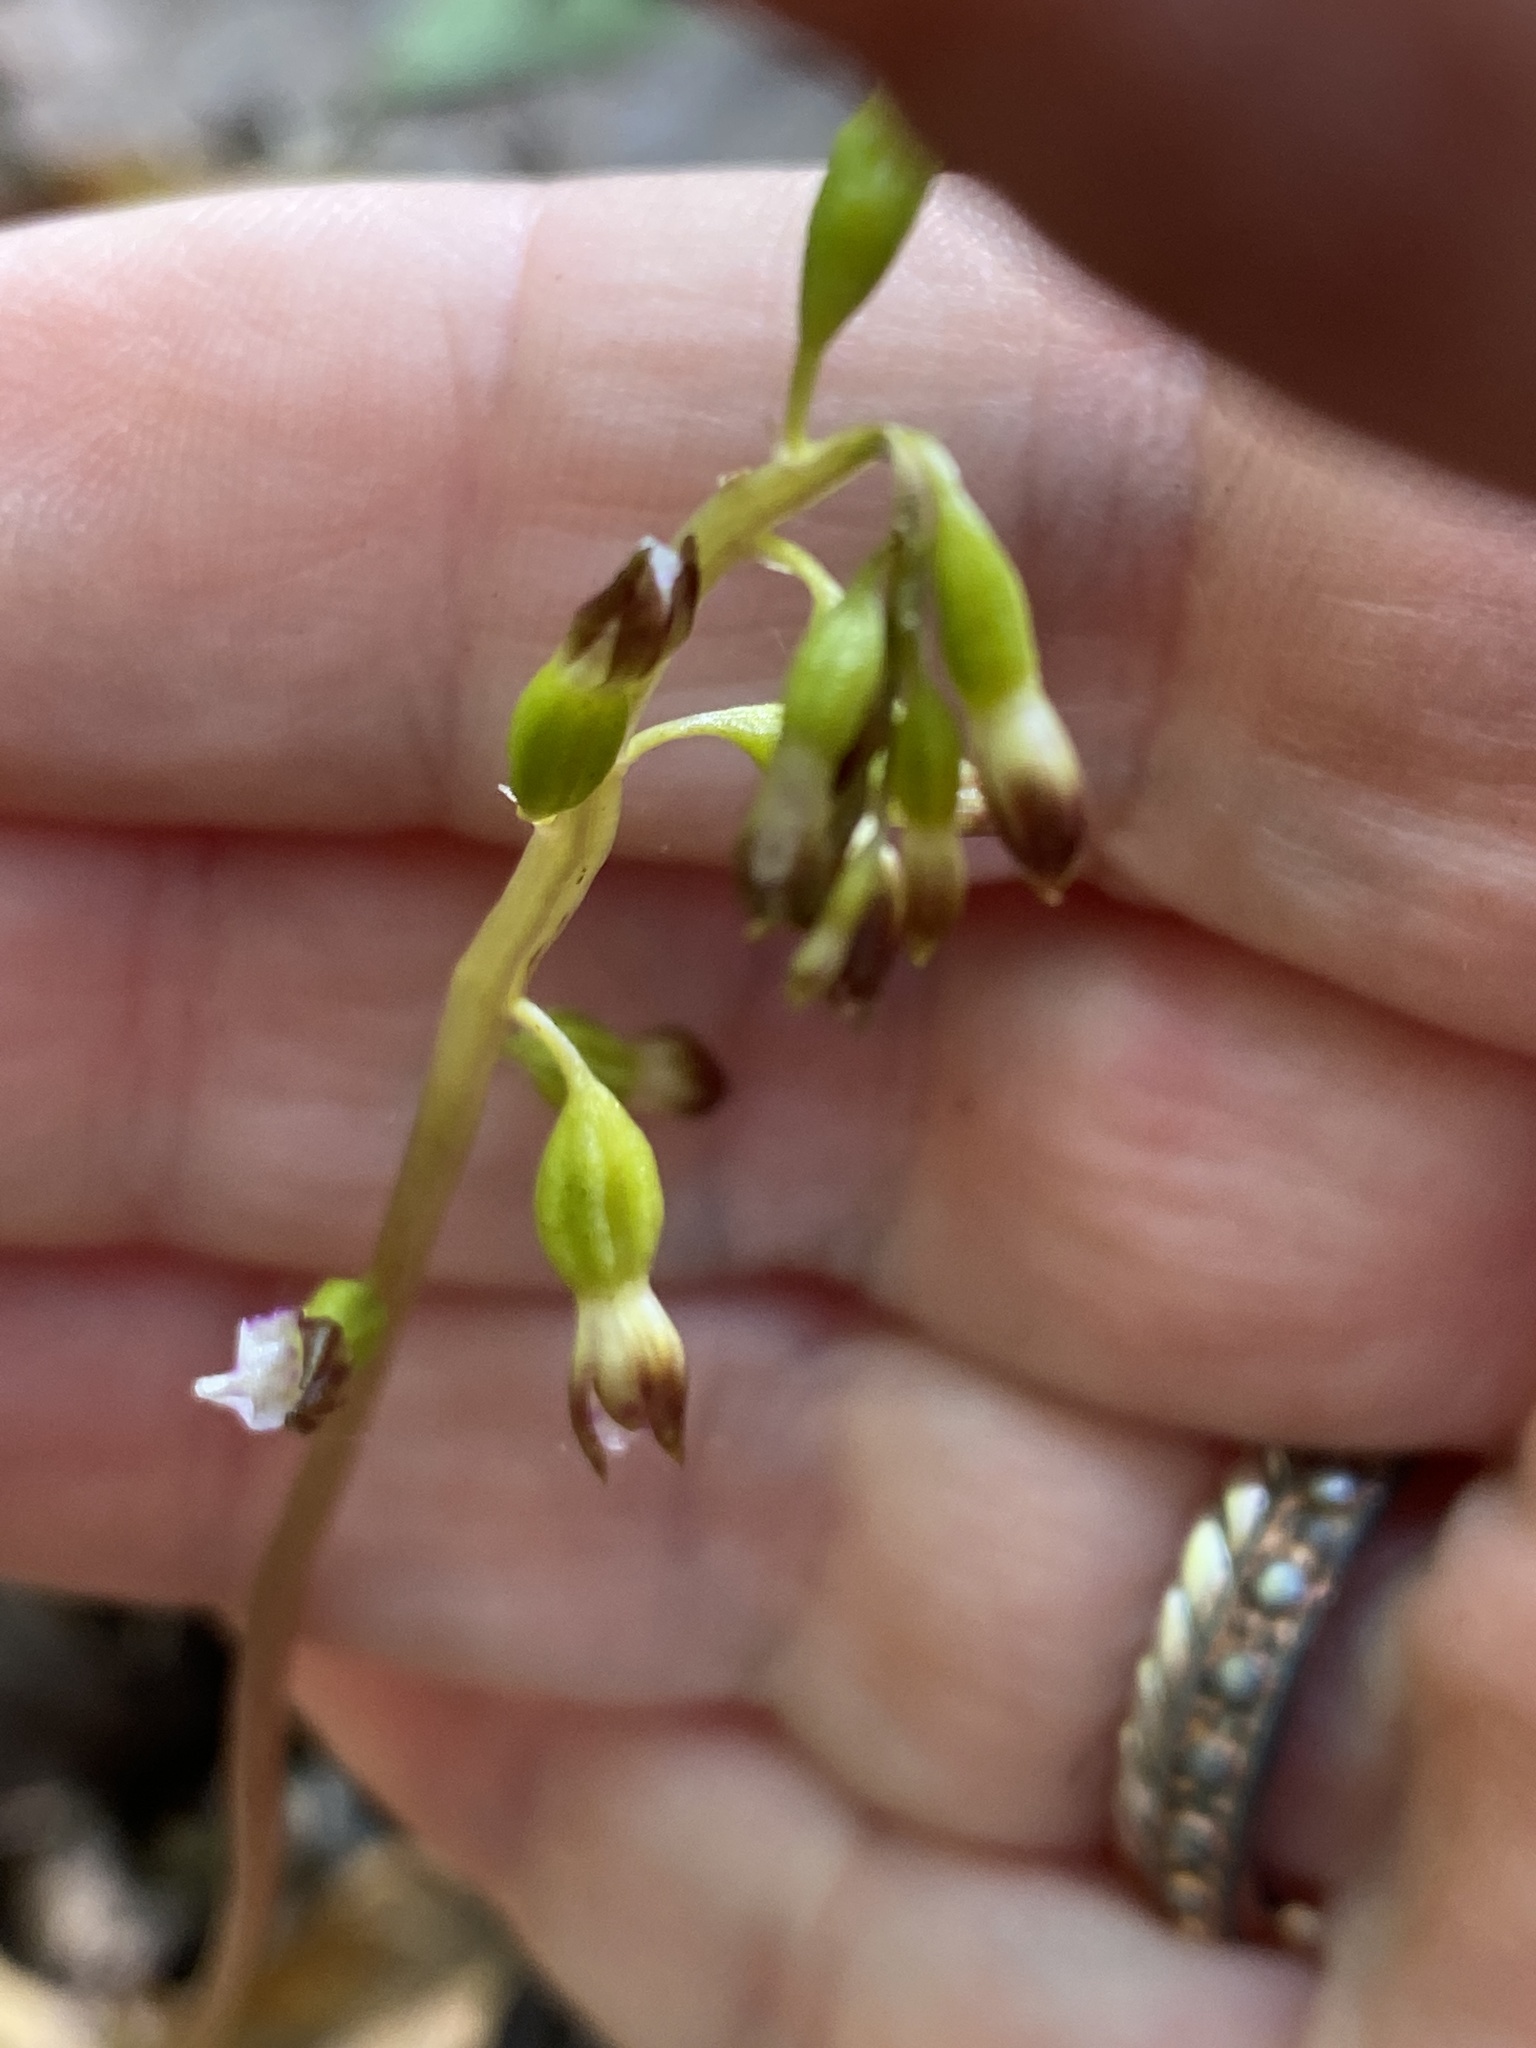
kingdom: Plantae
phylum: Tracheophyta
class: Liliopsida
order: Asparagales
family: Orchidaceae
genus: Corallorhiza
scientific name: Corallorhiza odontorhiza
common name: Autumn coralroot
